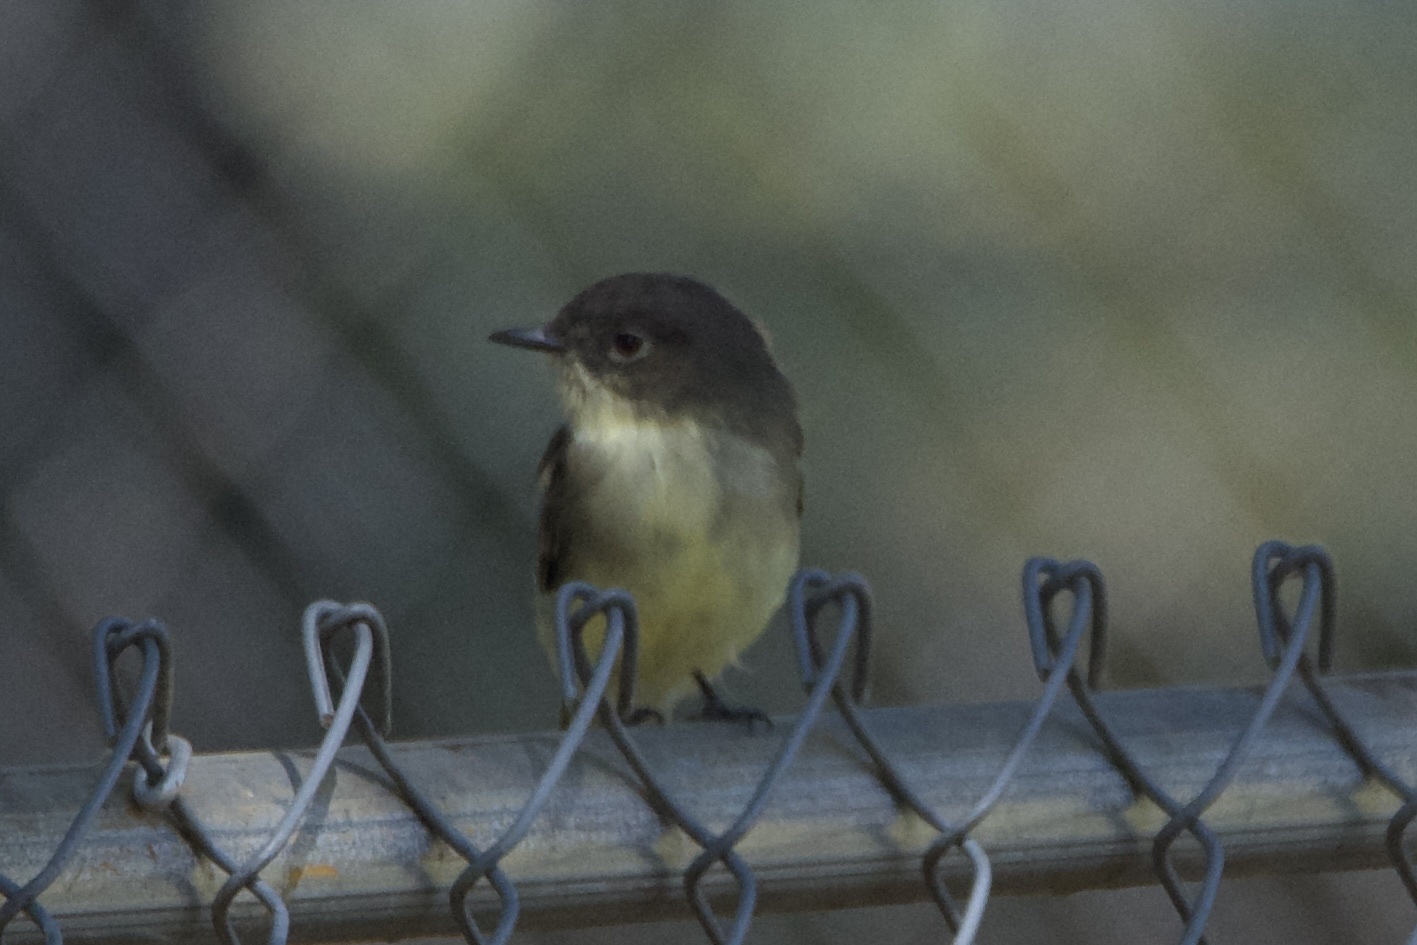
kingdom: Animalia
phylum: Chordata
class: Aves
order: Passeriformes
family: Tyrannidae
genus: Sayornis
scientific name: Sayornis phoebe
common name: Eastern phoebe
